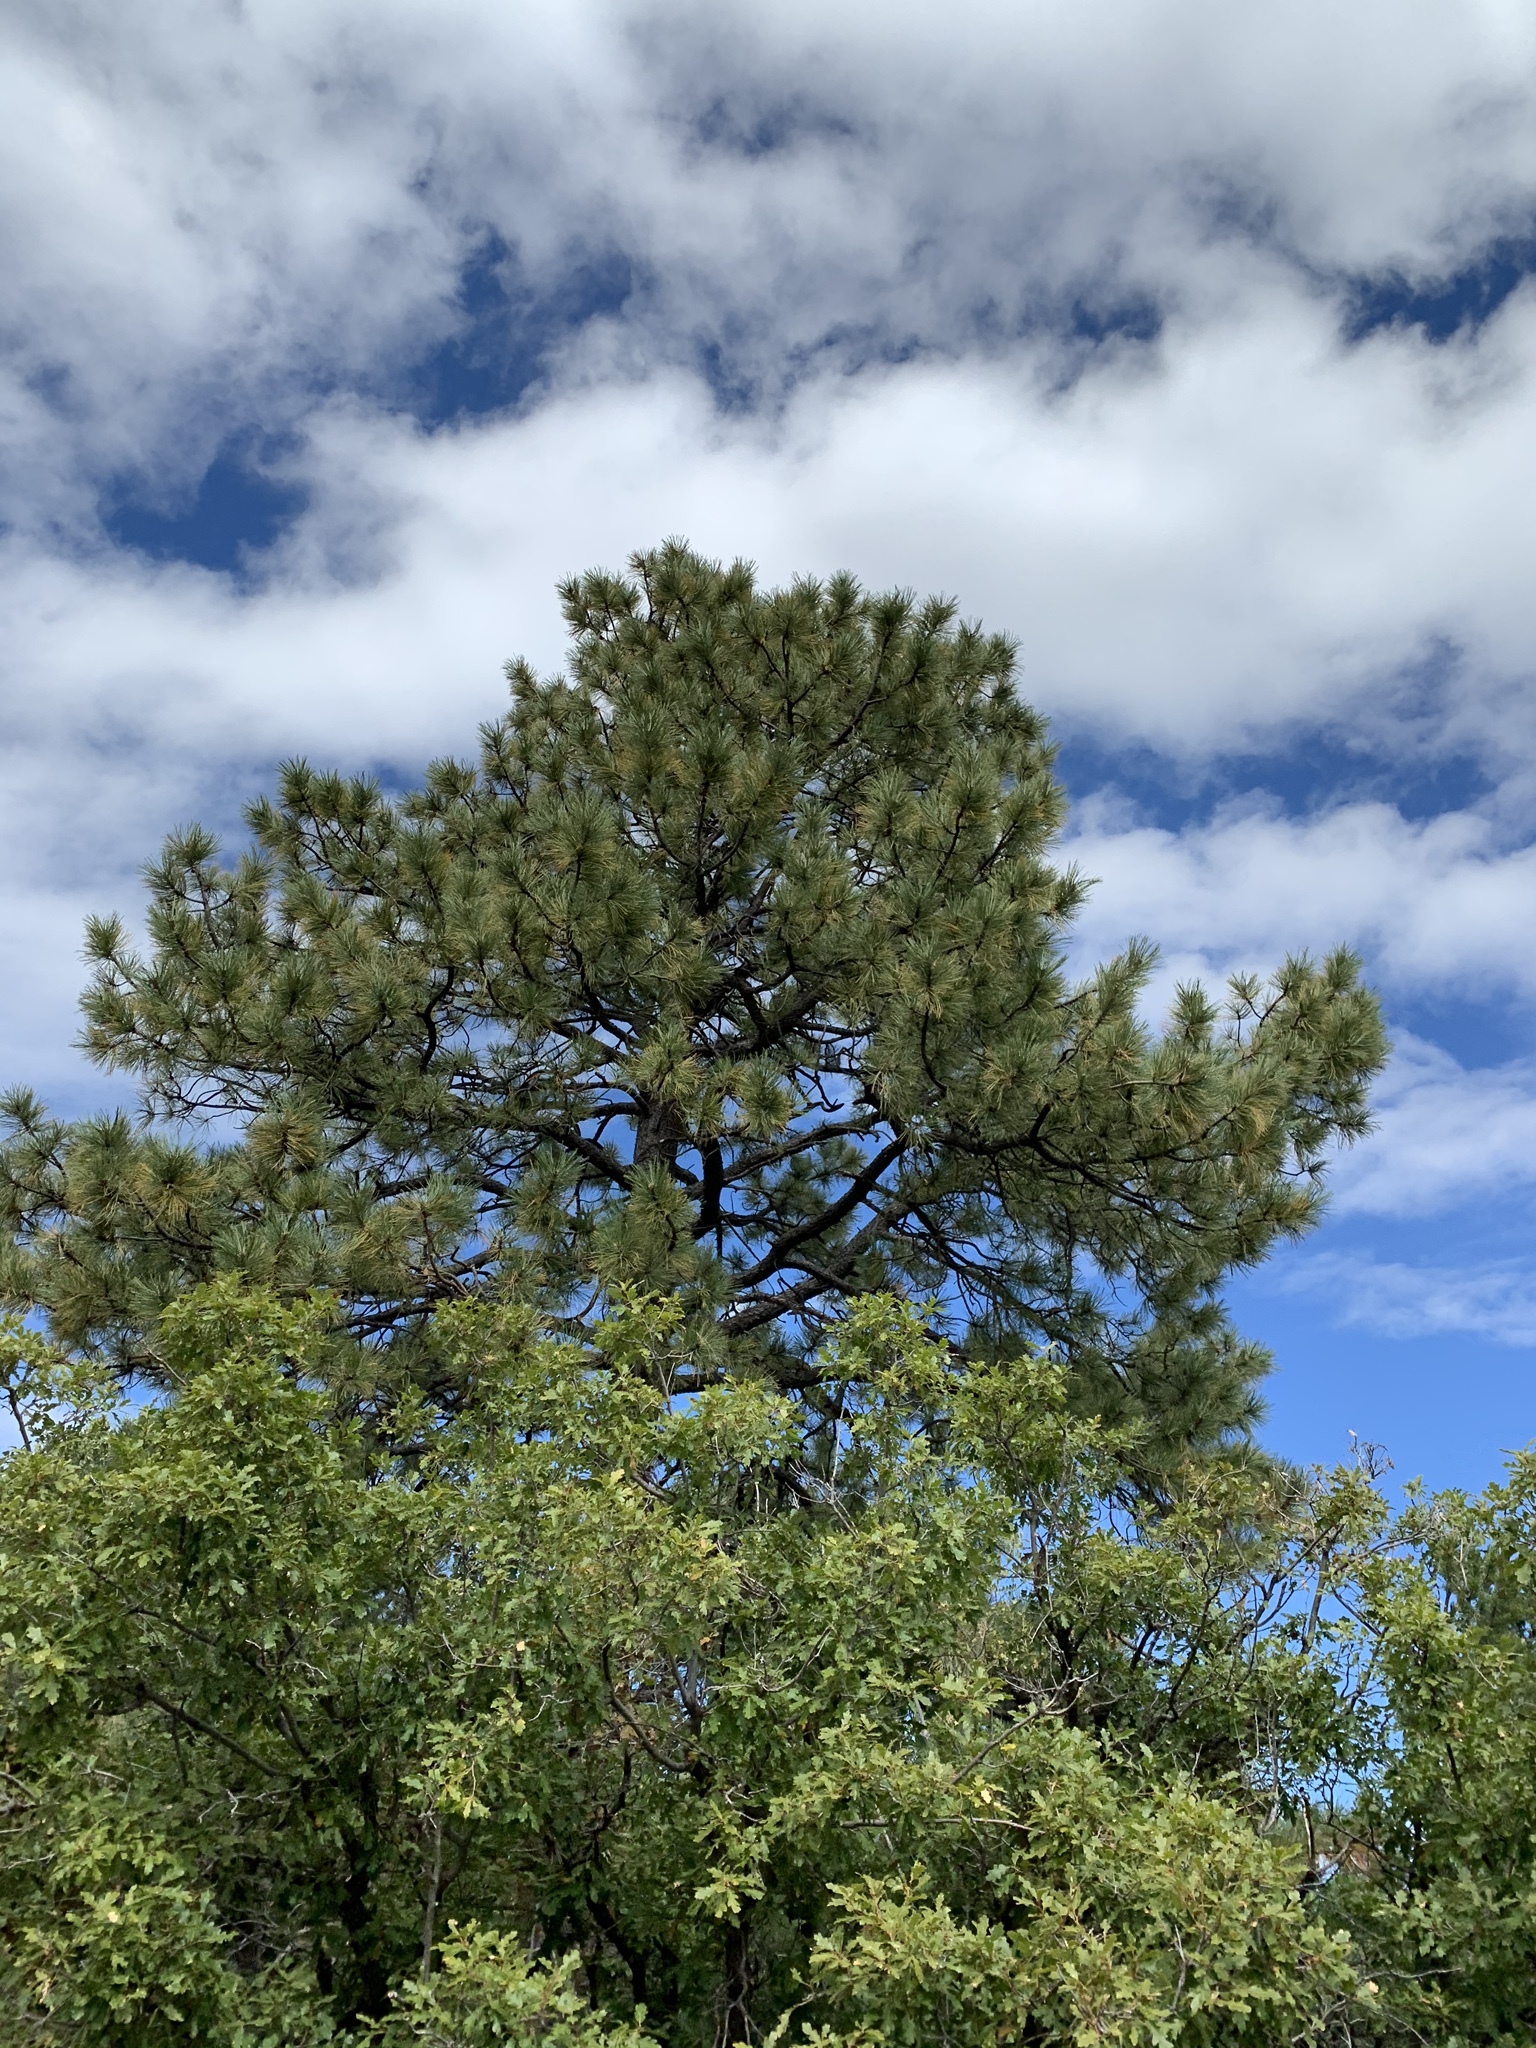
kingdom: Plantae
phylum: Tracheophyta
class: Pinopsida
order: Pinales
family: Pinaceae
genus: Pinus
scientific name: Pinus ponderosa
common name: Western yellow-pine
